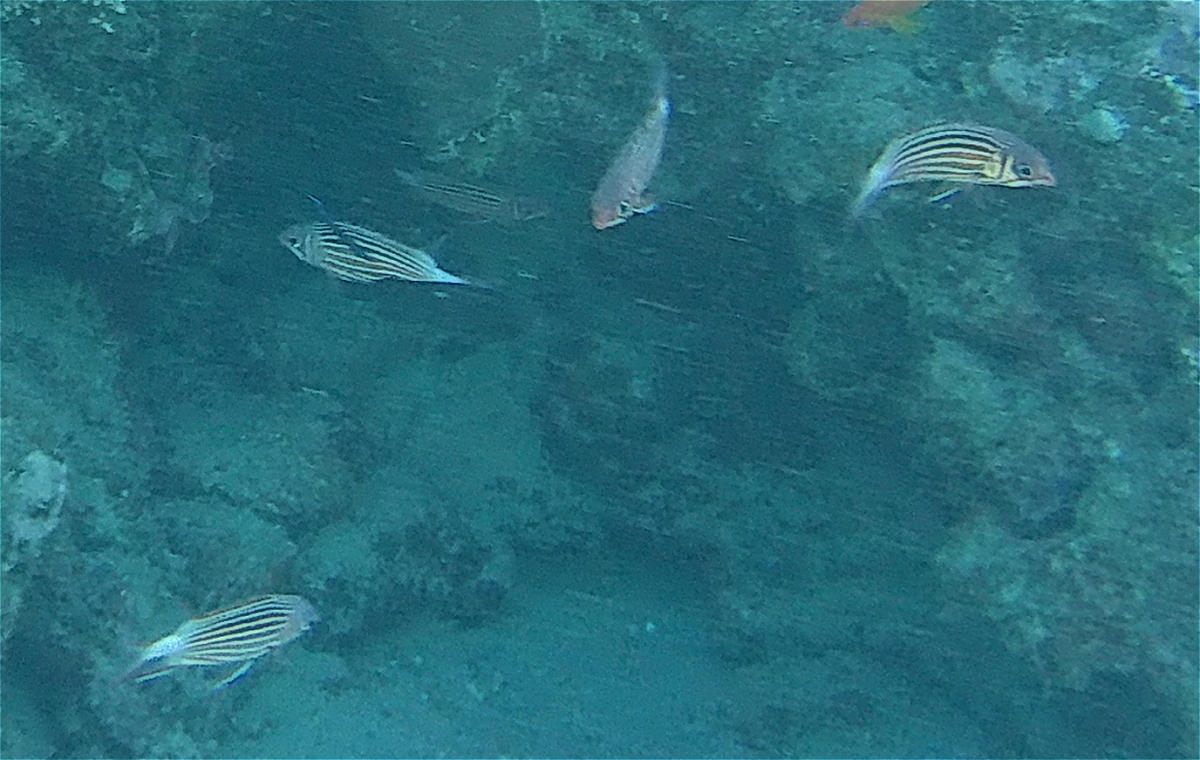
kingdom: Animalia
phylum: Chordata
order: Beryciformes
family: Holocentridae
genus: Sargocentron
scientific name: Sargocentron diadema
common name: Crown squirrelfish
